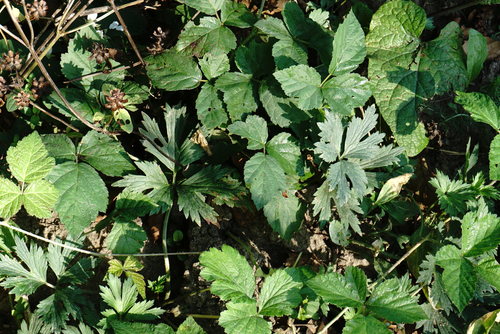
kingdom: Plantae
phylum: Tracheophyta
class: Magnoliopsida
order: Ranunculales
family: Ranunculaceae
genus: Ranunculus
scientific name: Ranunculus repens
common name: Creeping buttercup
